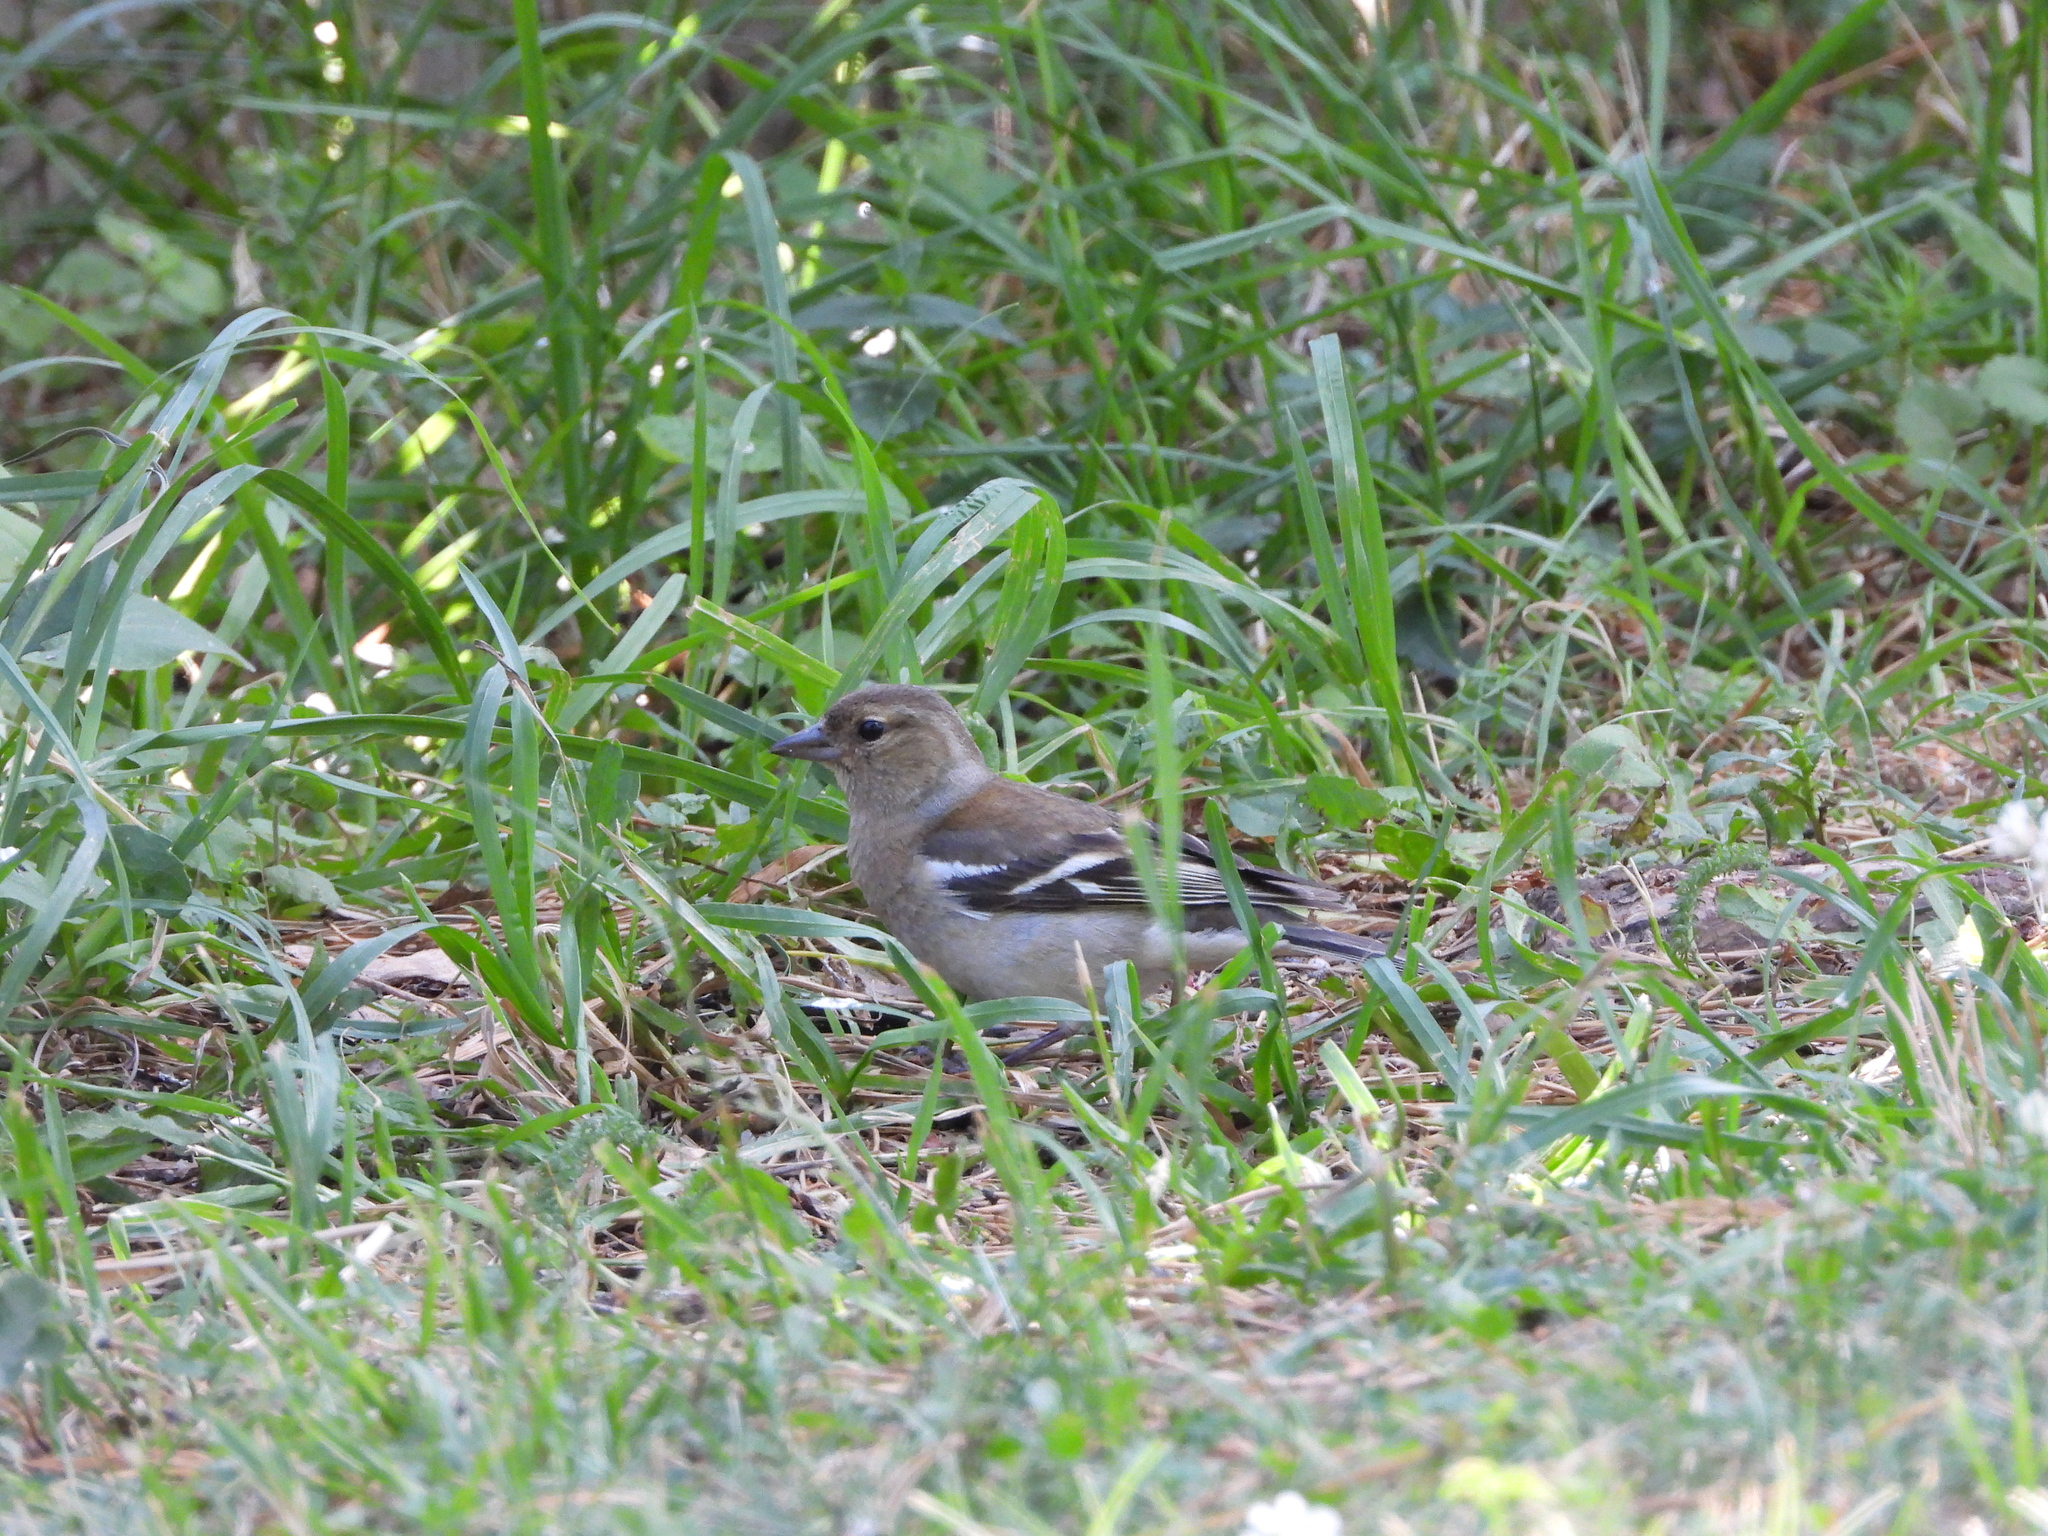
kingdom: Animalia
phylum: Chordata
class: Aves
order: Passeriformes
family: Fringillidae
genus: Fringilla
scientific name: Fringilla coelebs
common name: Common chaffinch
